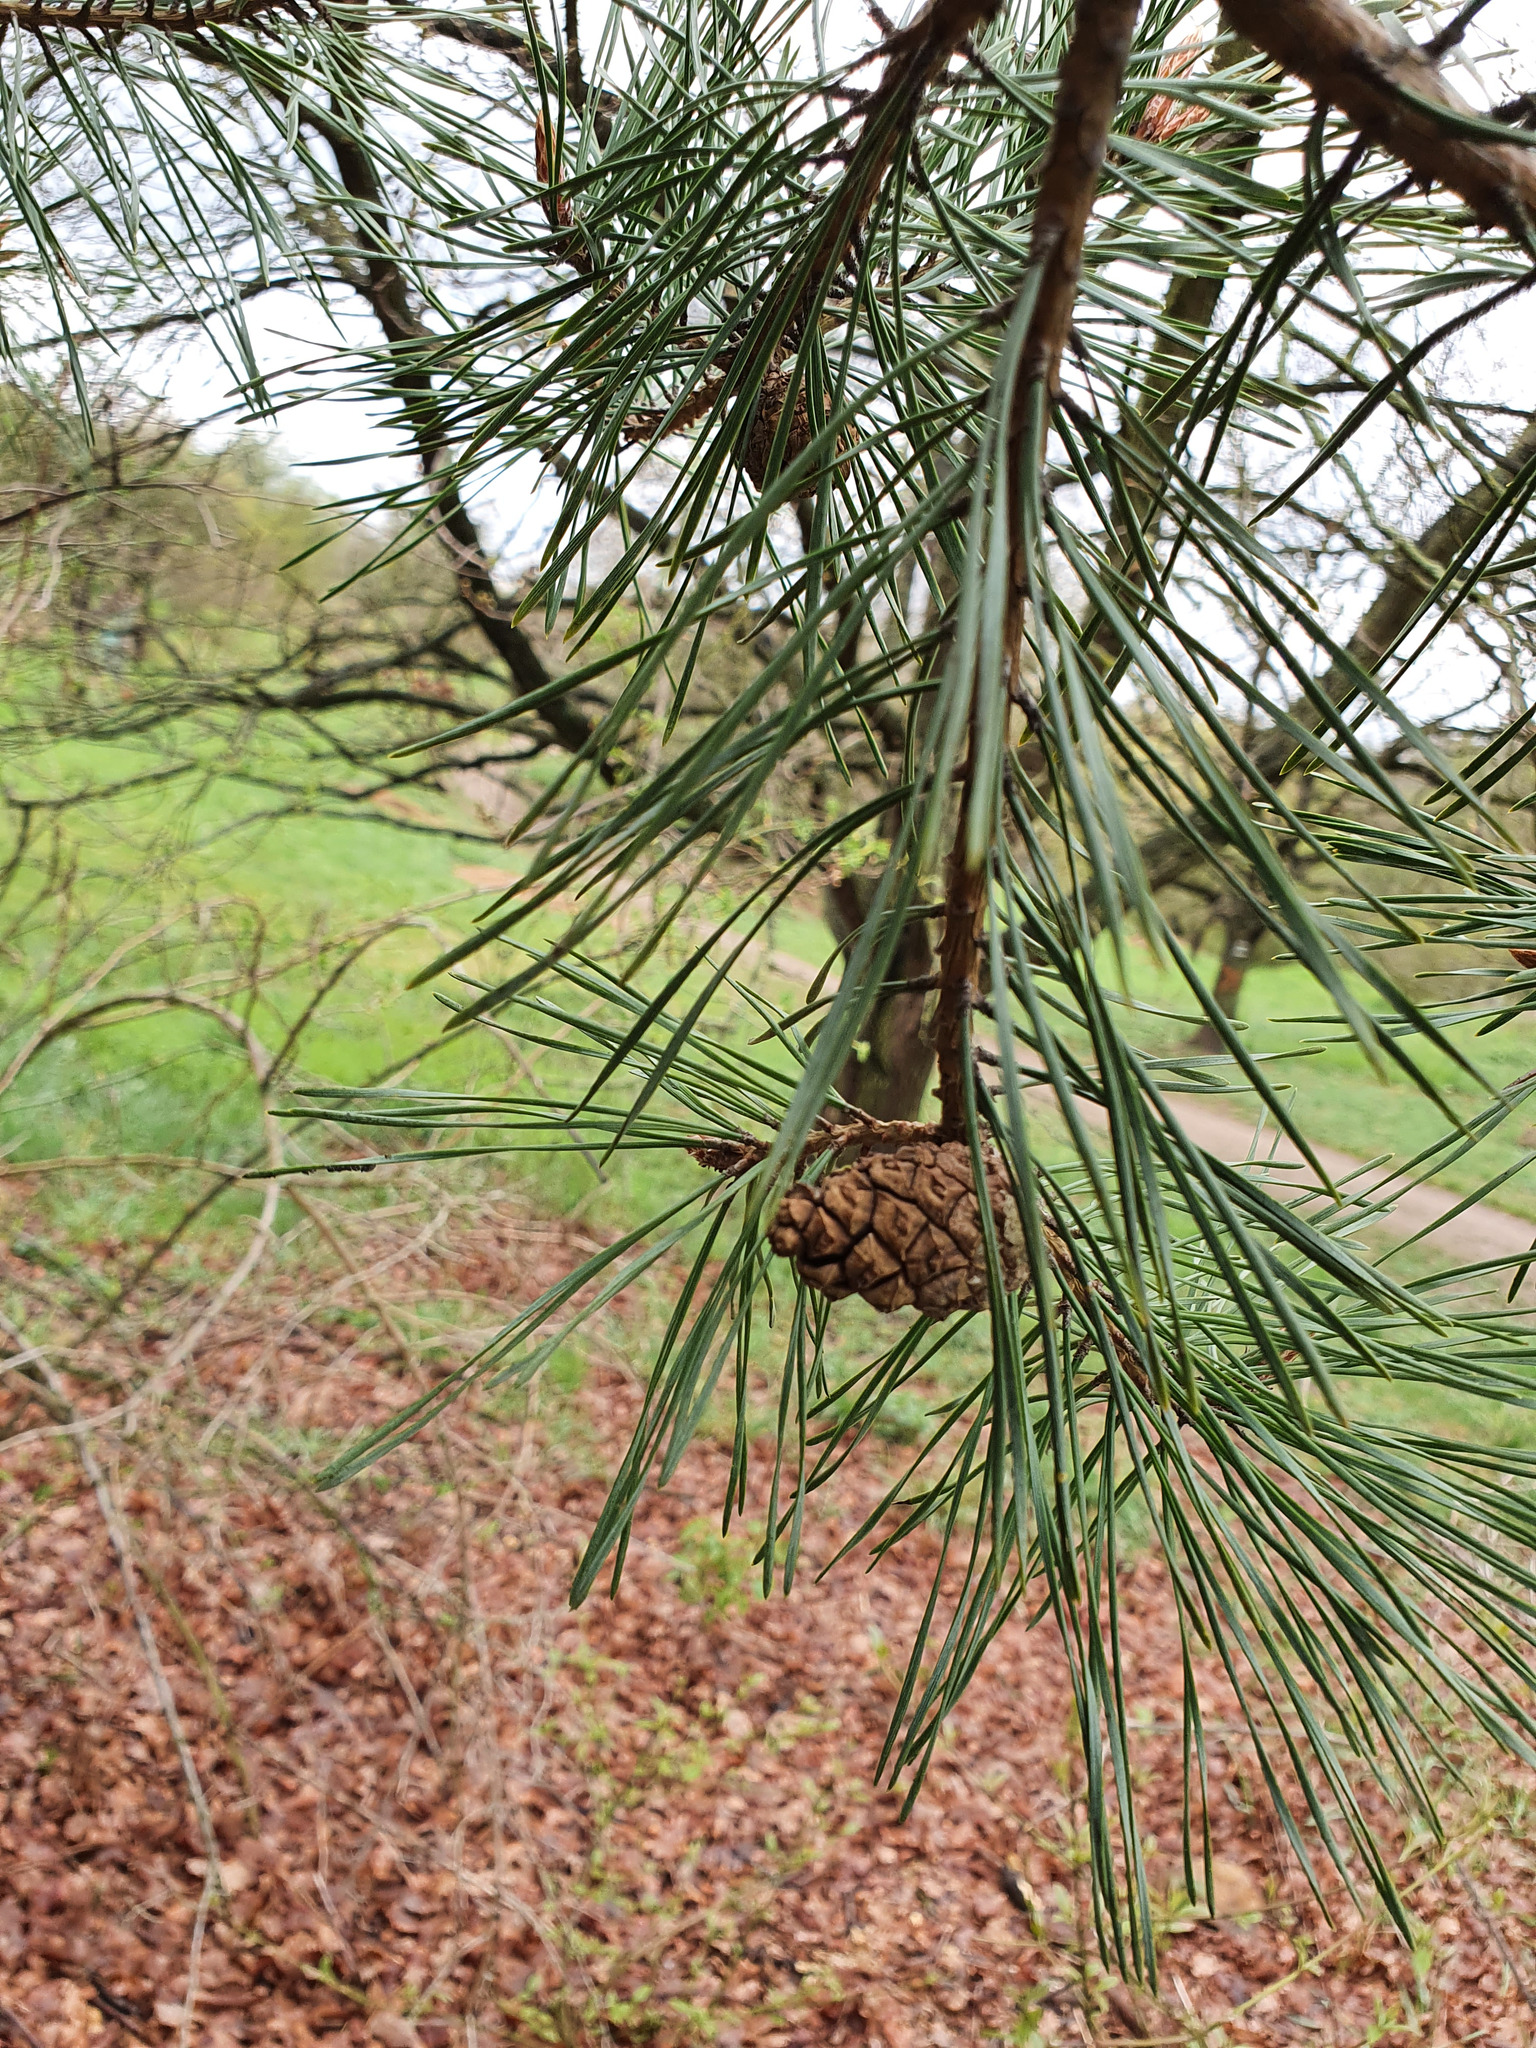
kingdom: Plantae
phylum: Tracheophyta
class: Pinopsida
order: Pinales
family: Pinaceae
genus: Pinus
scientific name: Pinus sylvestris
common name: Scots pine
